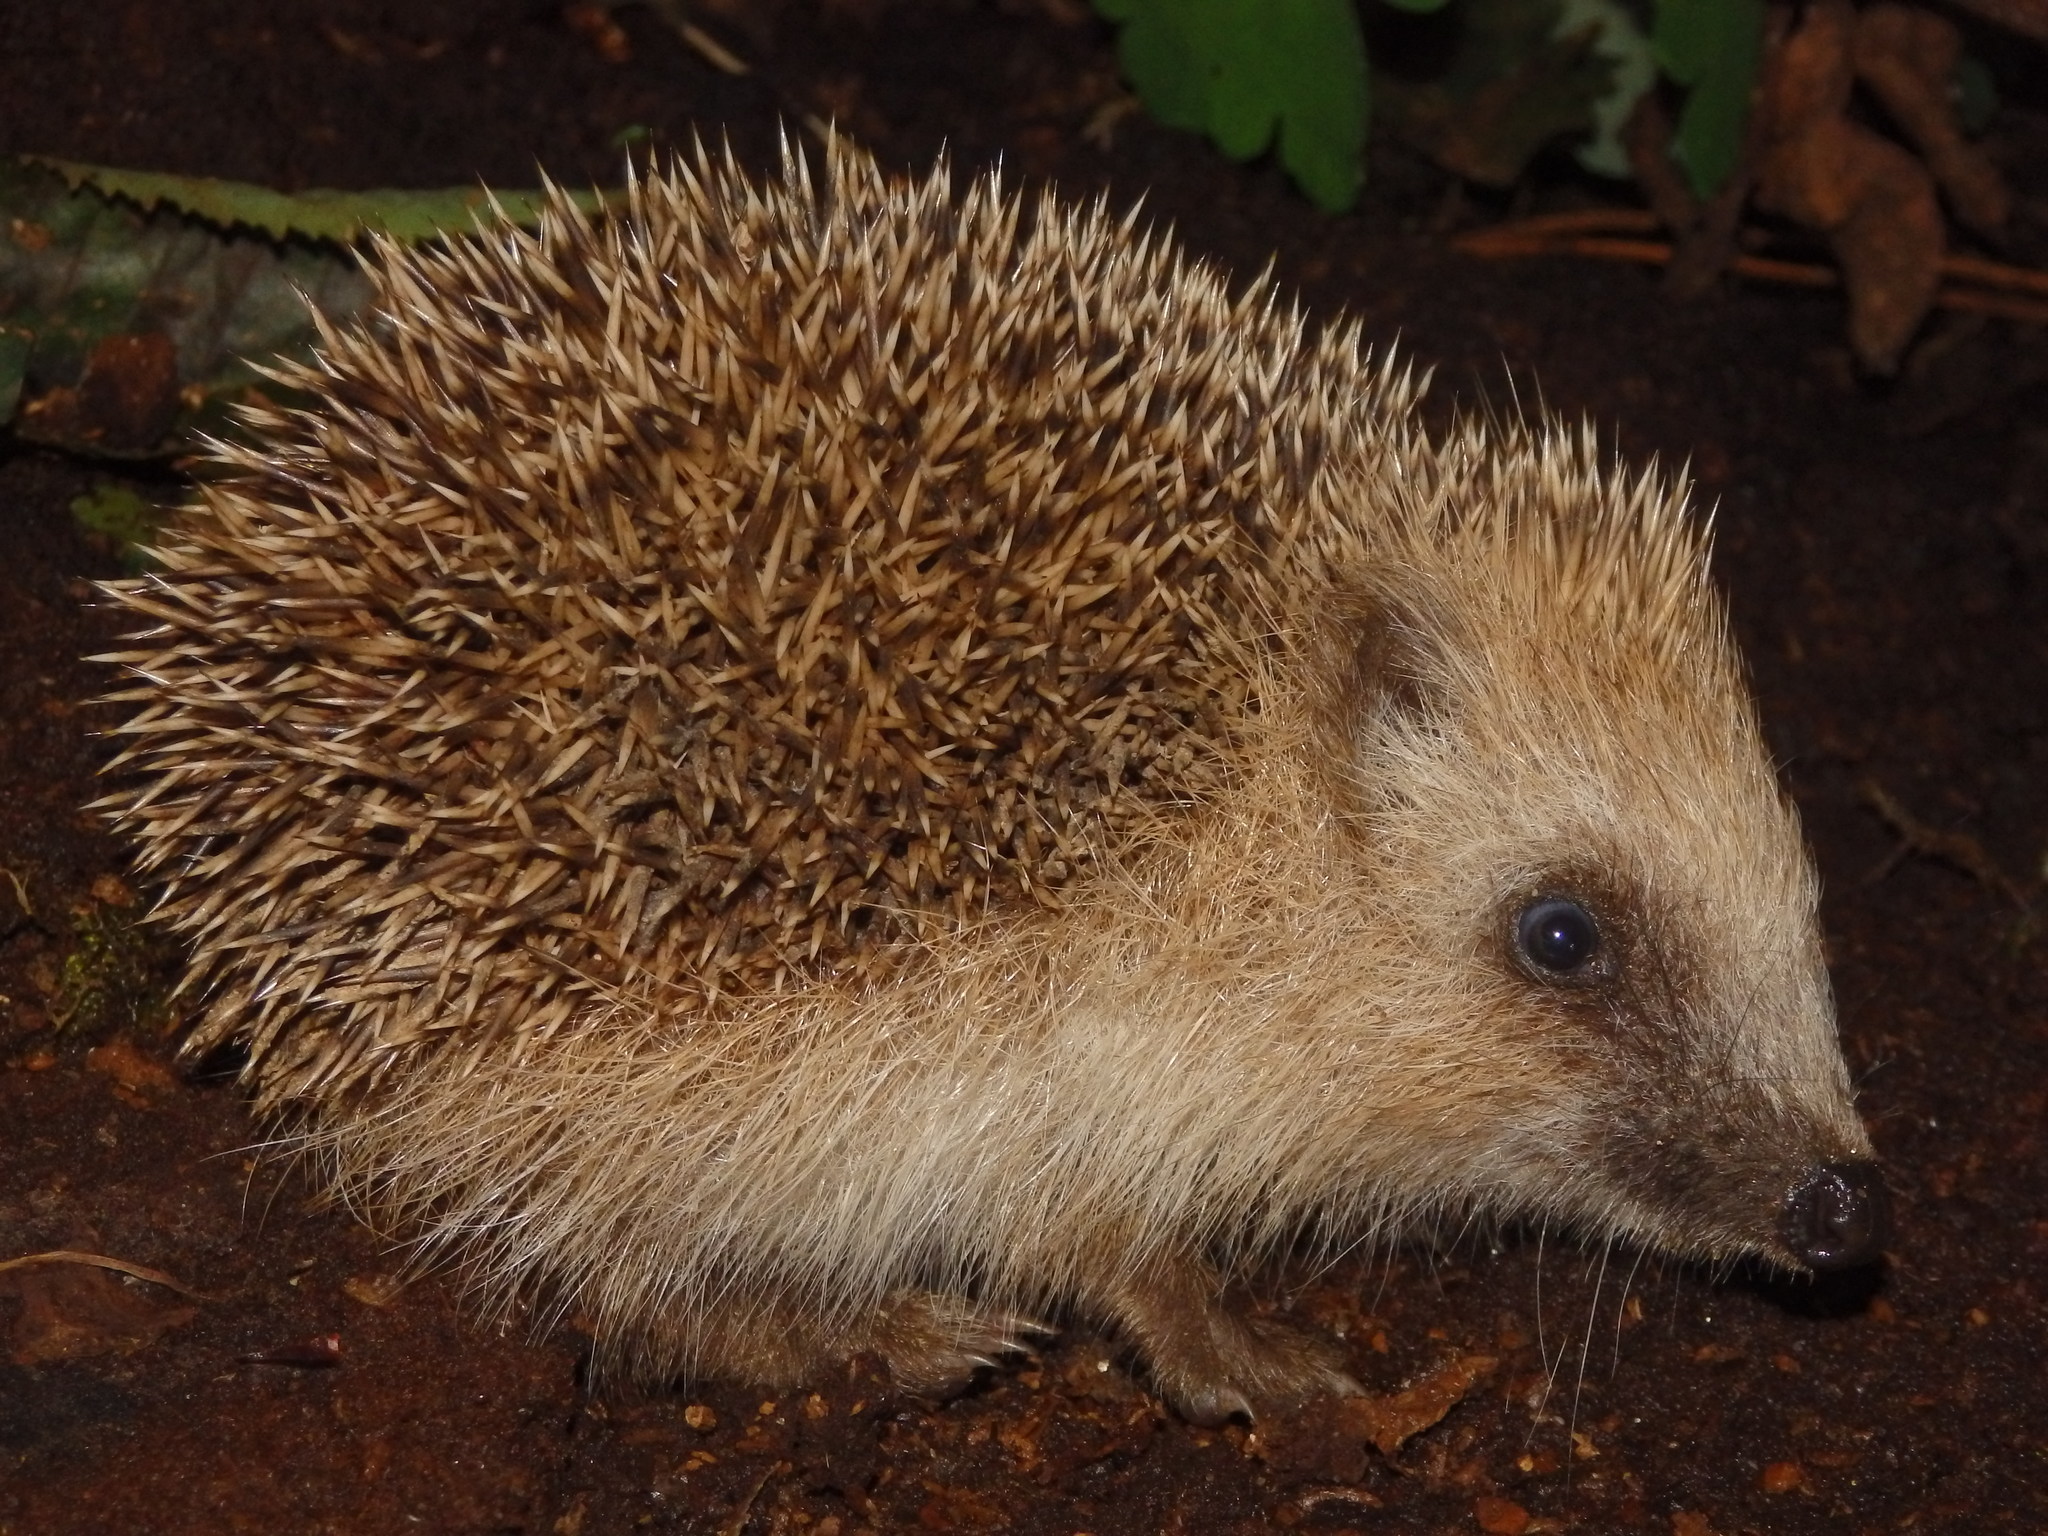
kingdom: Animalia
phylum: Chordata
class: Mammalia
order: Erinaceomorpha
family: Erinaceidae
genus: Erinaceus
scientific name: Erinaceus europaeus
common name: West european hedgehog
